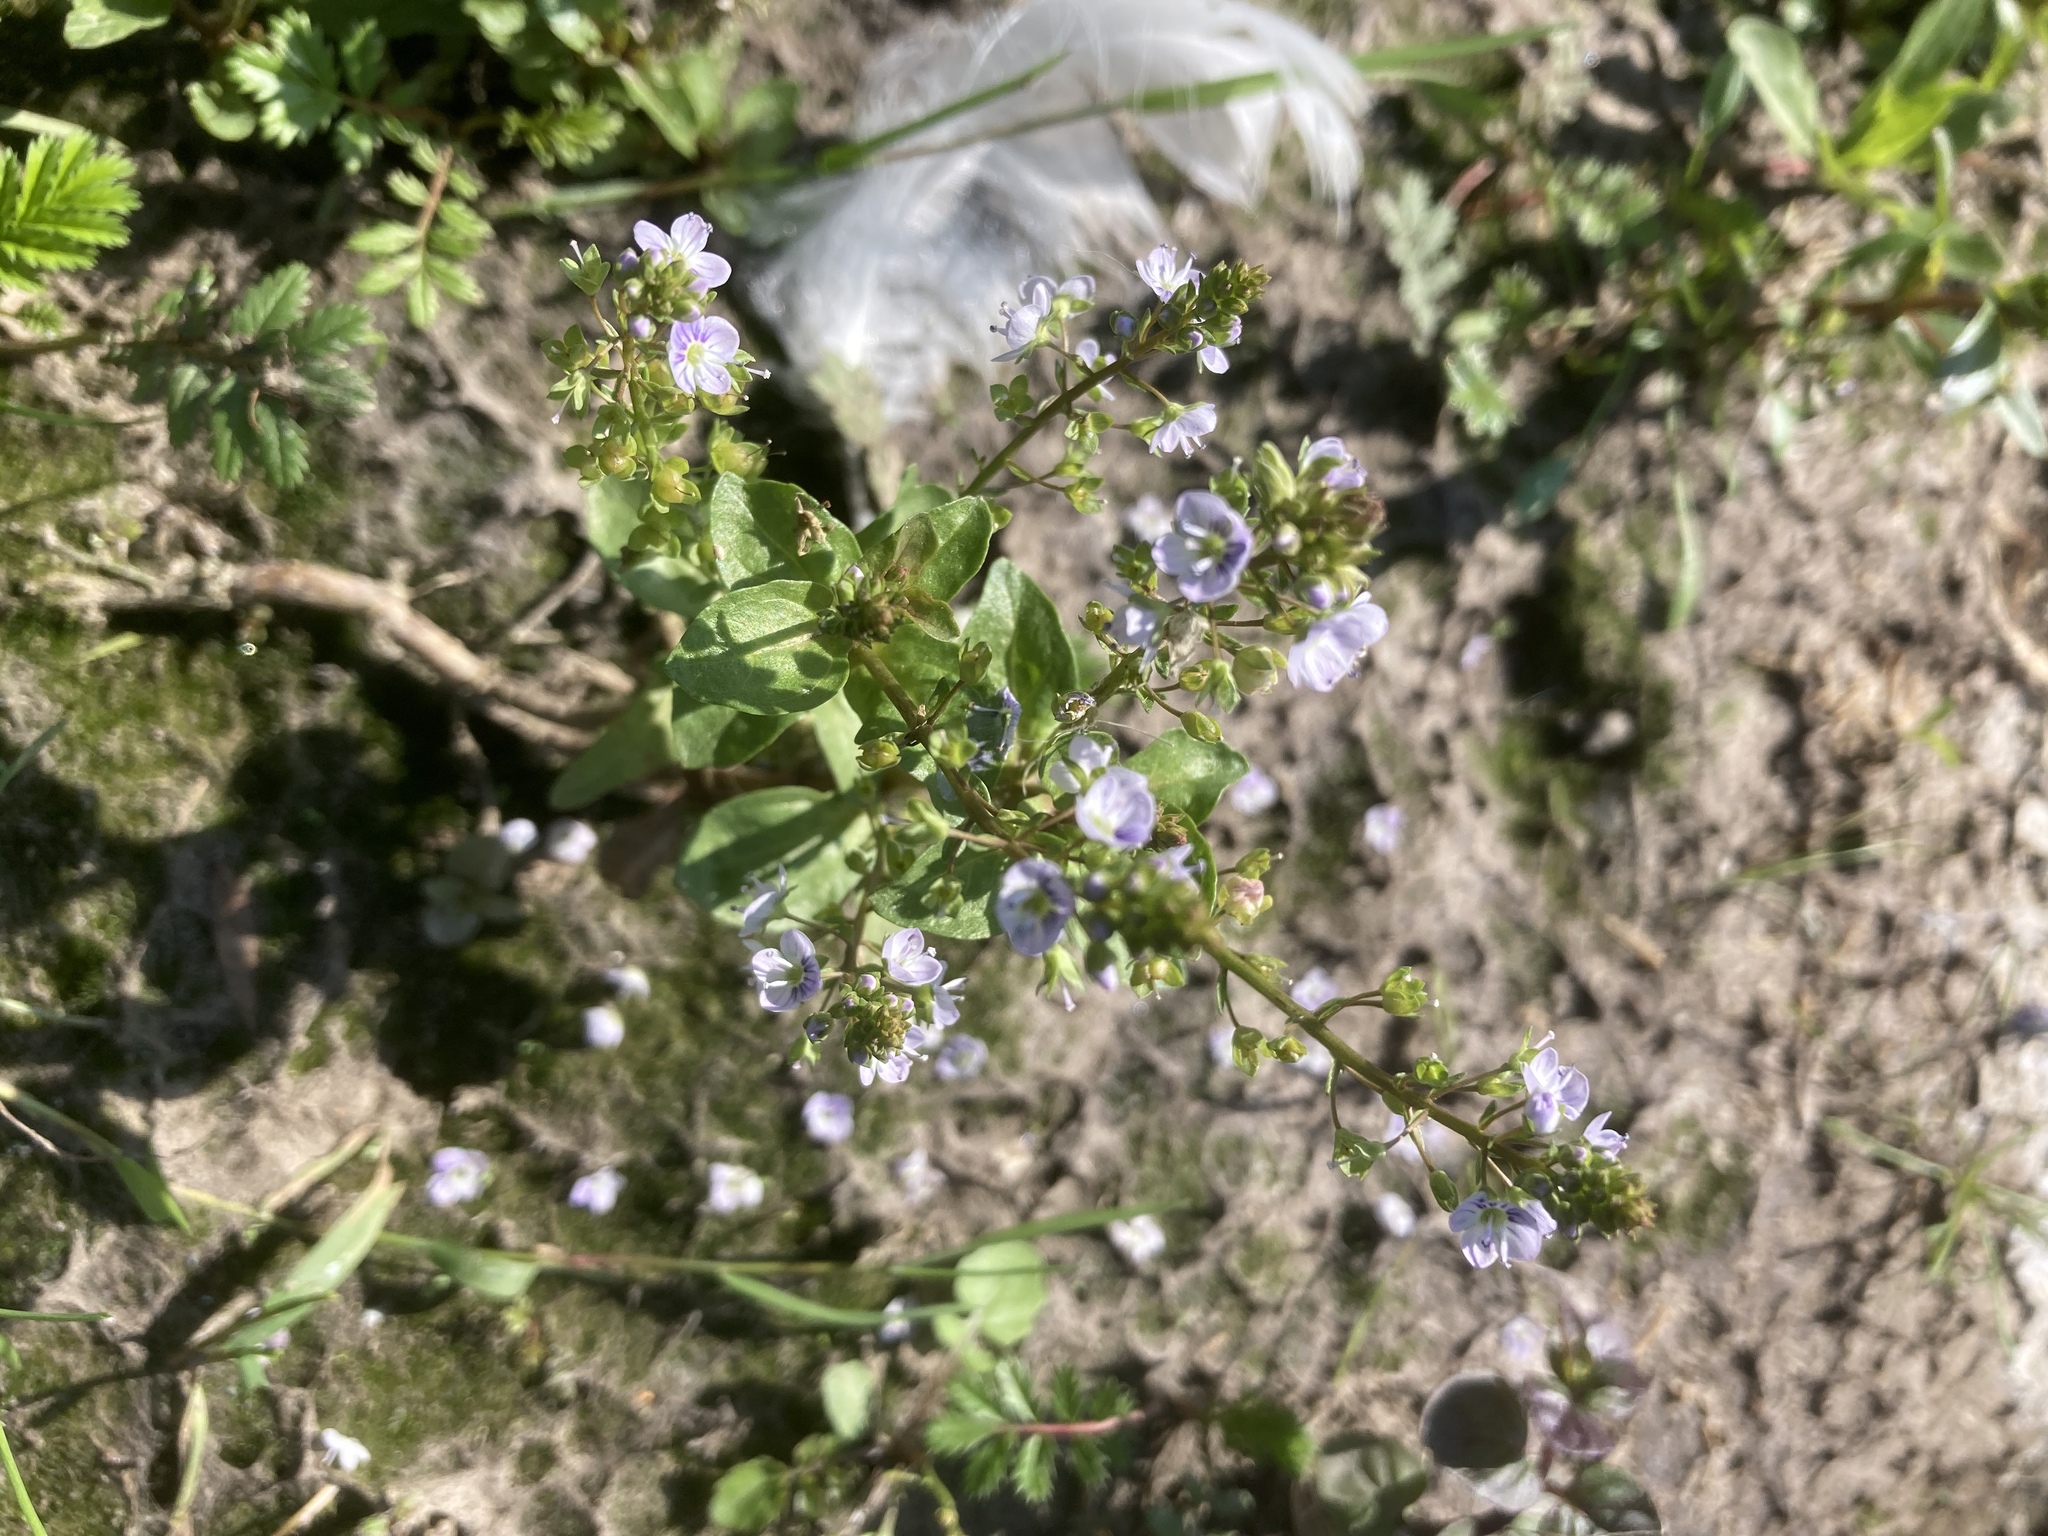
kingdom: Plantae
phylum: Tracheophyta
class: Magnoliopsida
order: Lamiales
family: Plantaginaceae
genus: Veronica
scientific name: Veronica anagallis-aquatica
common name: Water speedwell
